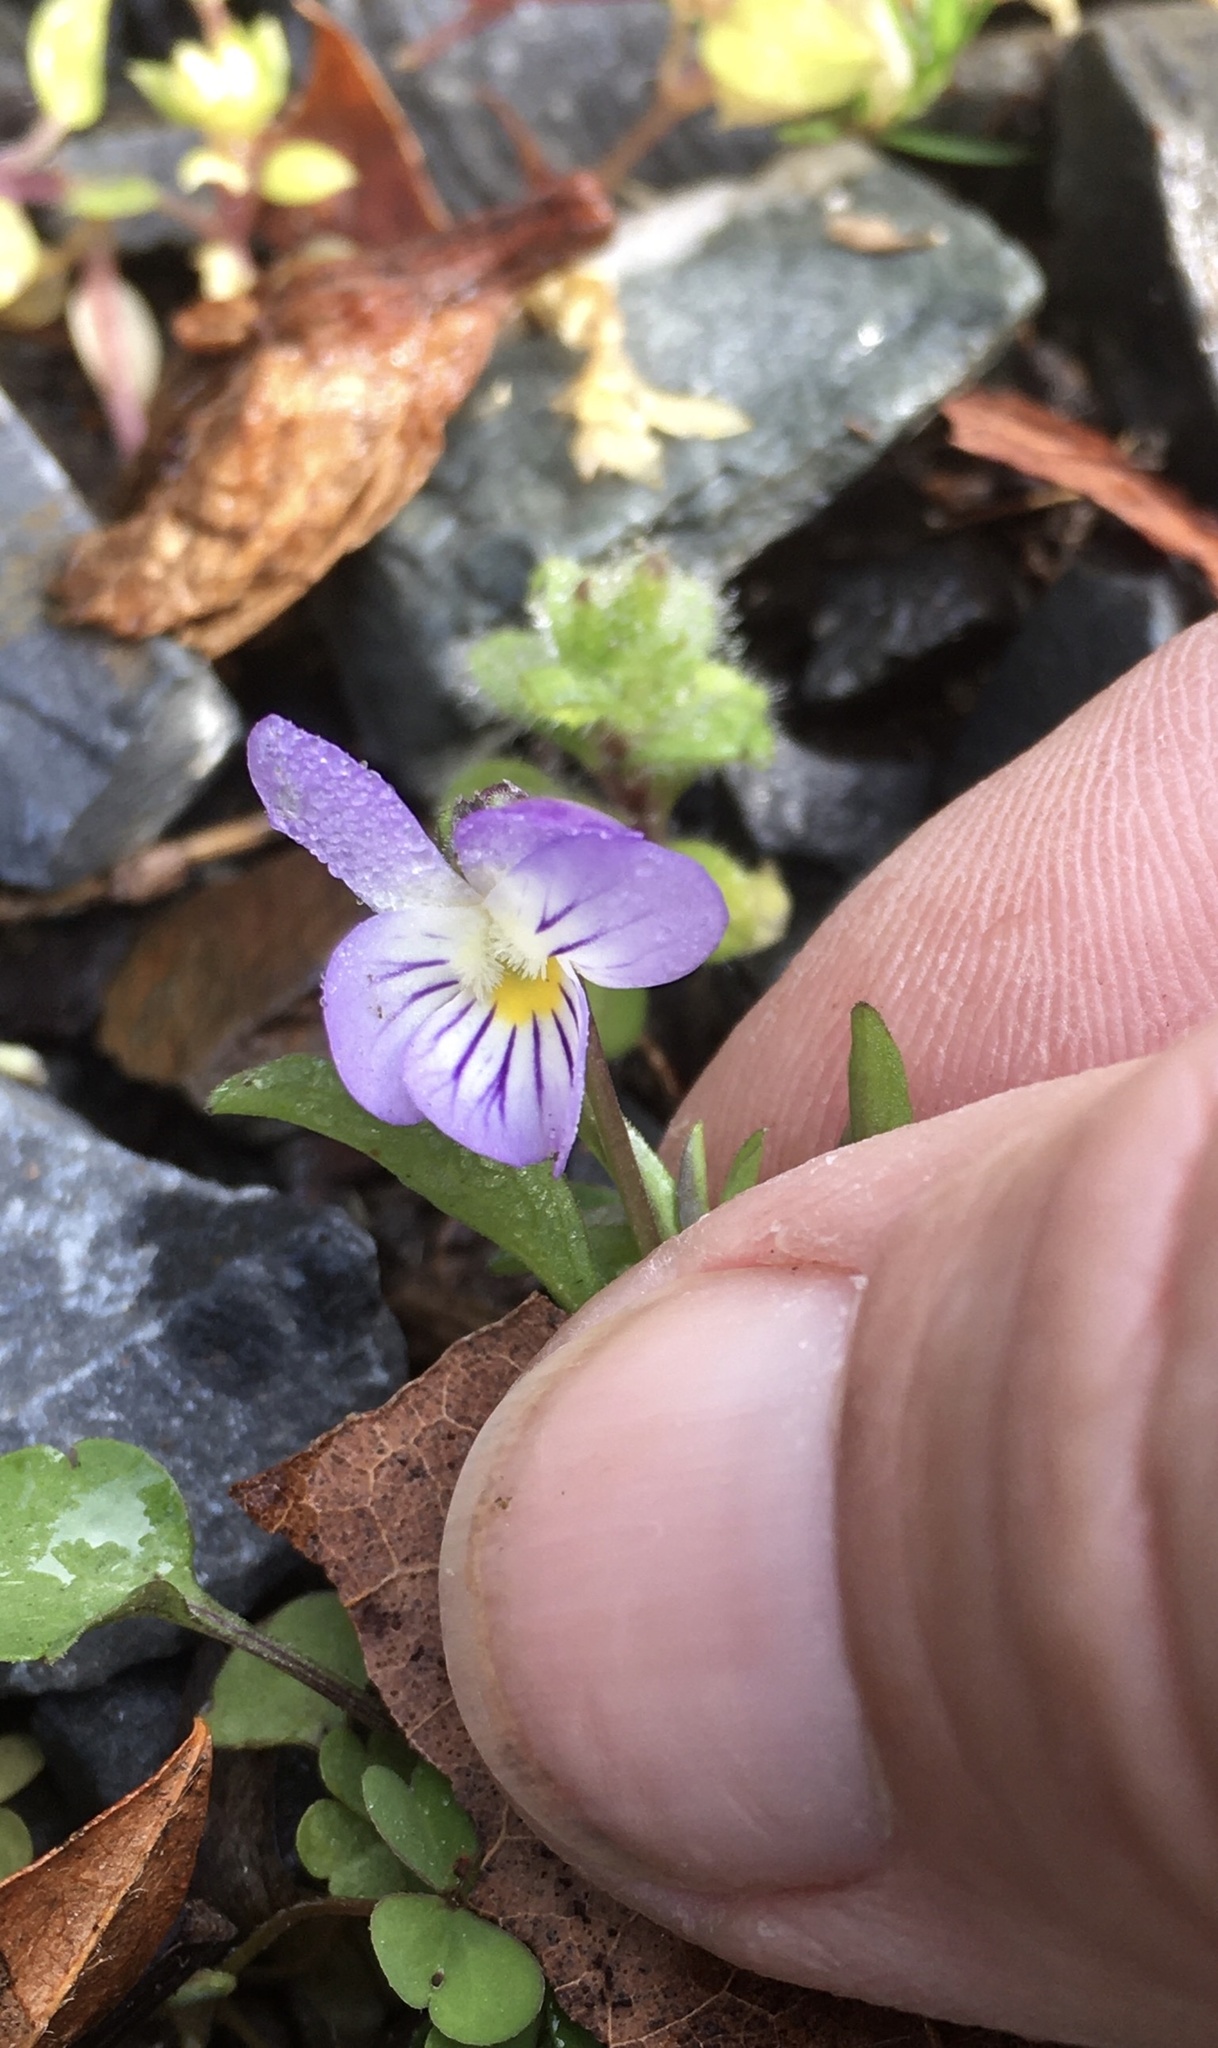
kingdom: Plantae
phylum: Tracheophyta
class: Magnoliopsida
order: Malpighiales
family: Violaceae
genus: Viola
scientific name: Viola rafinesquei
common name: American field pansy
